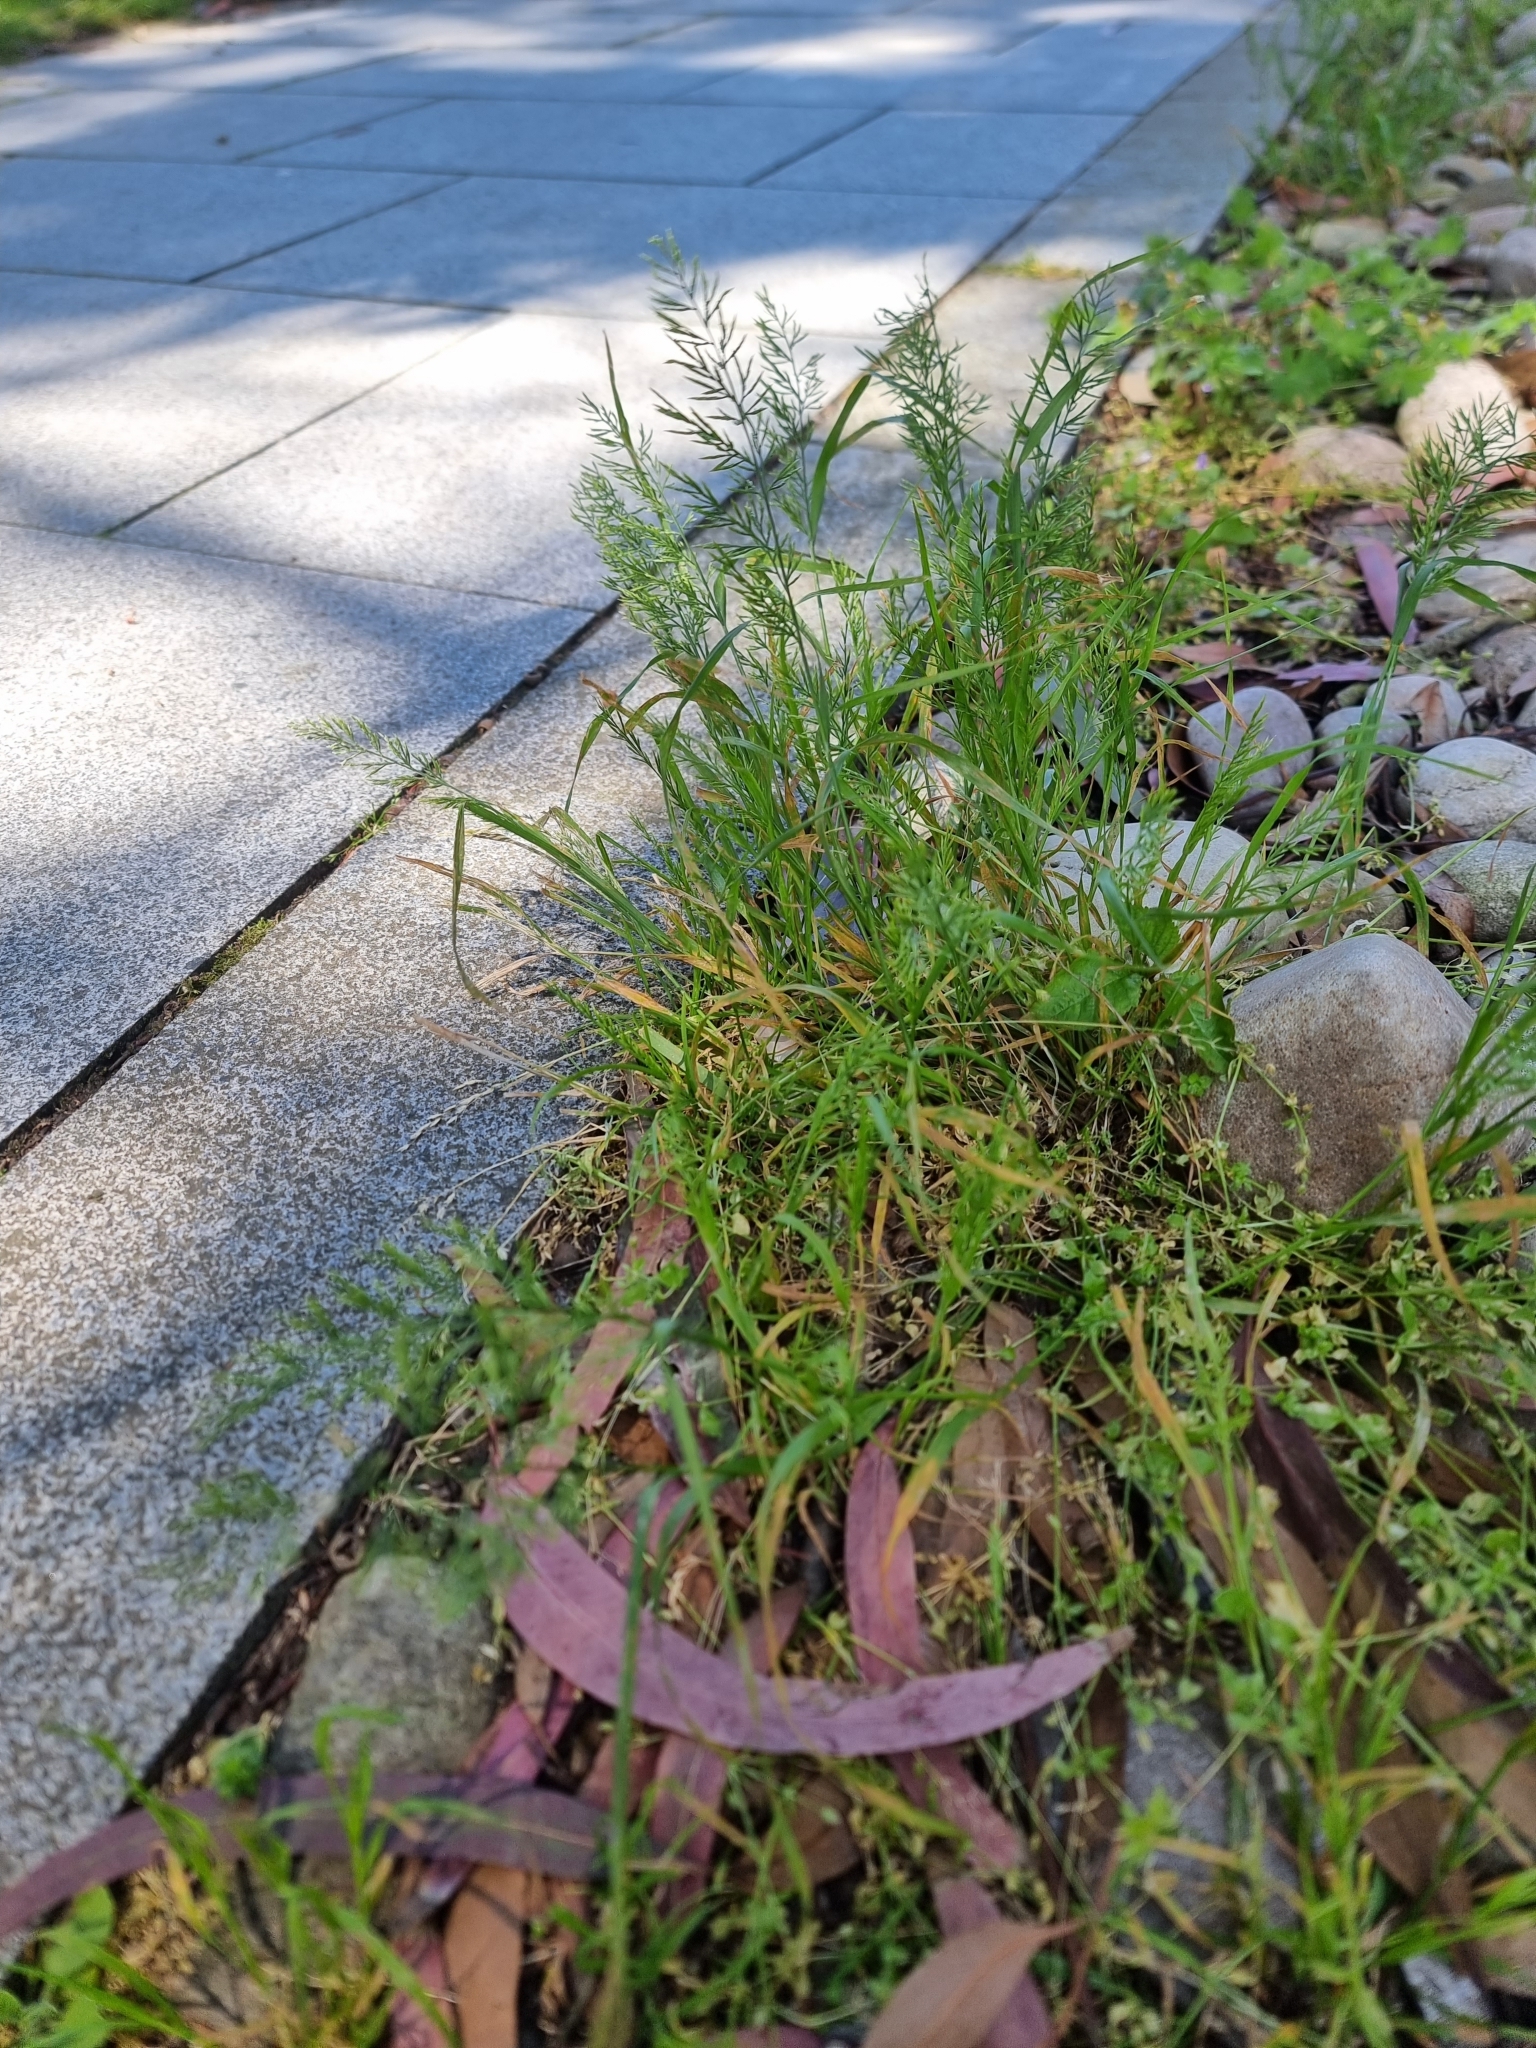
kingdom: Plantae
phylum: Tracheophyta
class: Liliopsida
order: Poales
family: Poaceae
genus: Catapodium
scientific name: Catapodium rigidum
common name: Fern-grass
